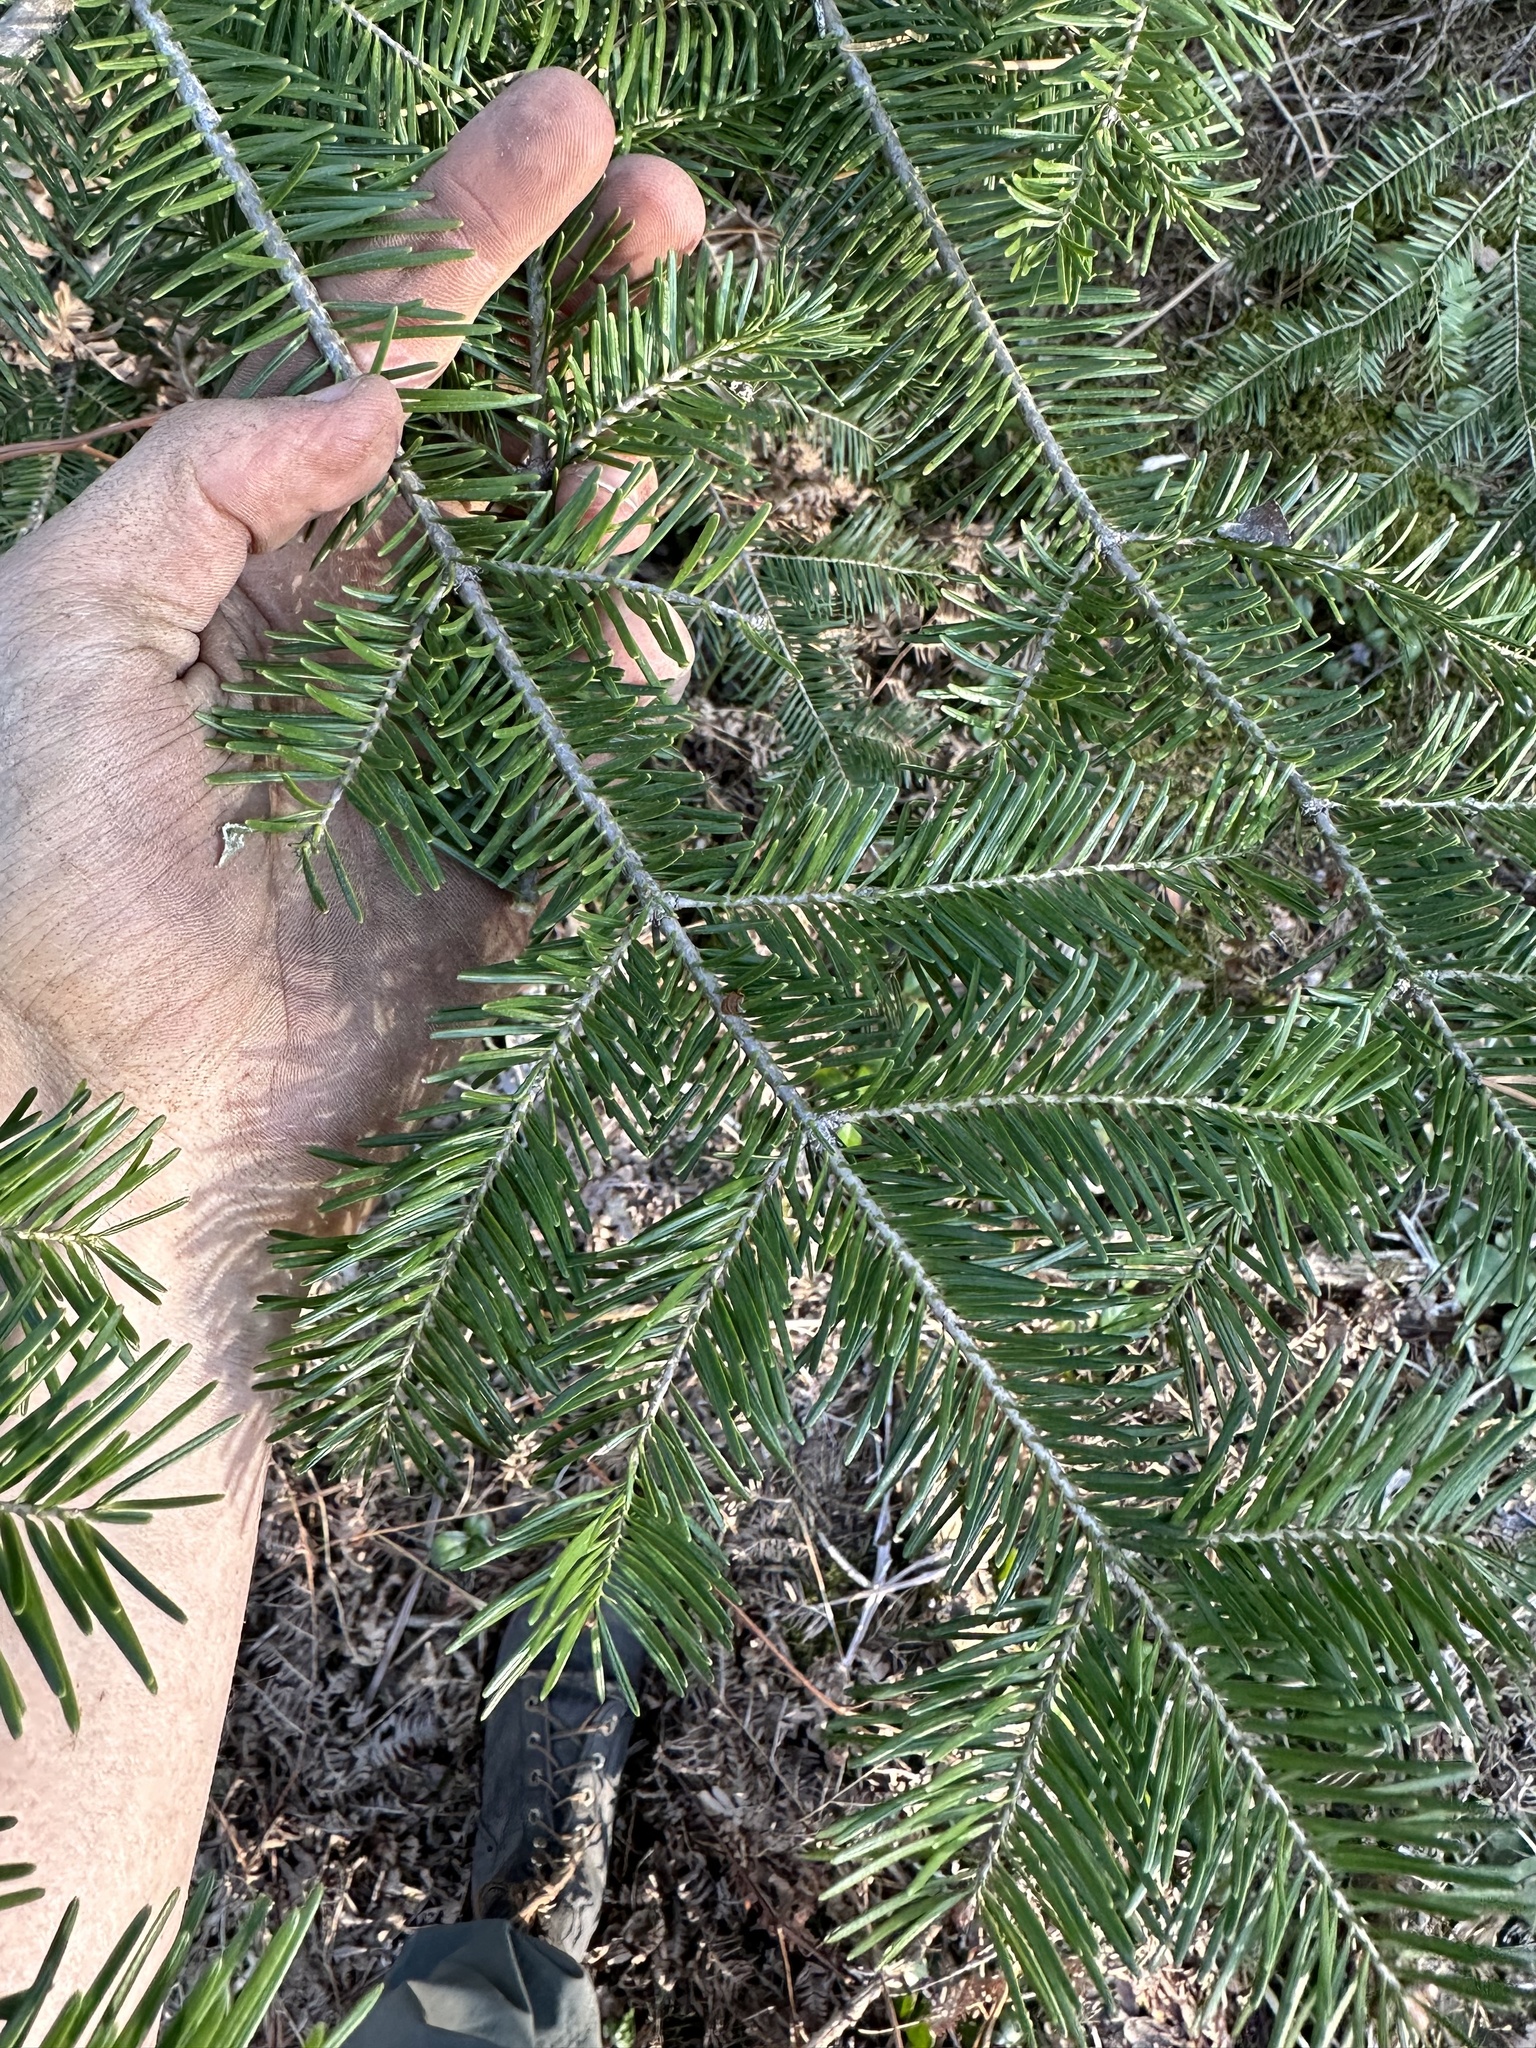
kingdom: Plantae
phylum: Tracheophyta
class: Pinopsida
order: Pinales
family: Pinaceae
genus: Abies
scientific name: Abies balsamea
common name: Balsam fir
